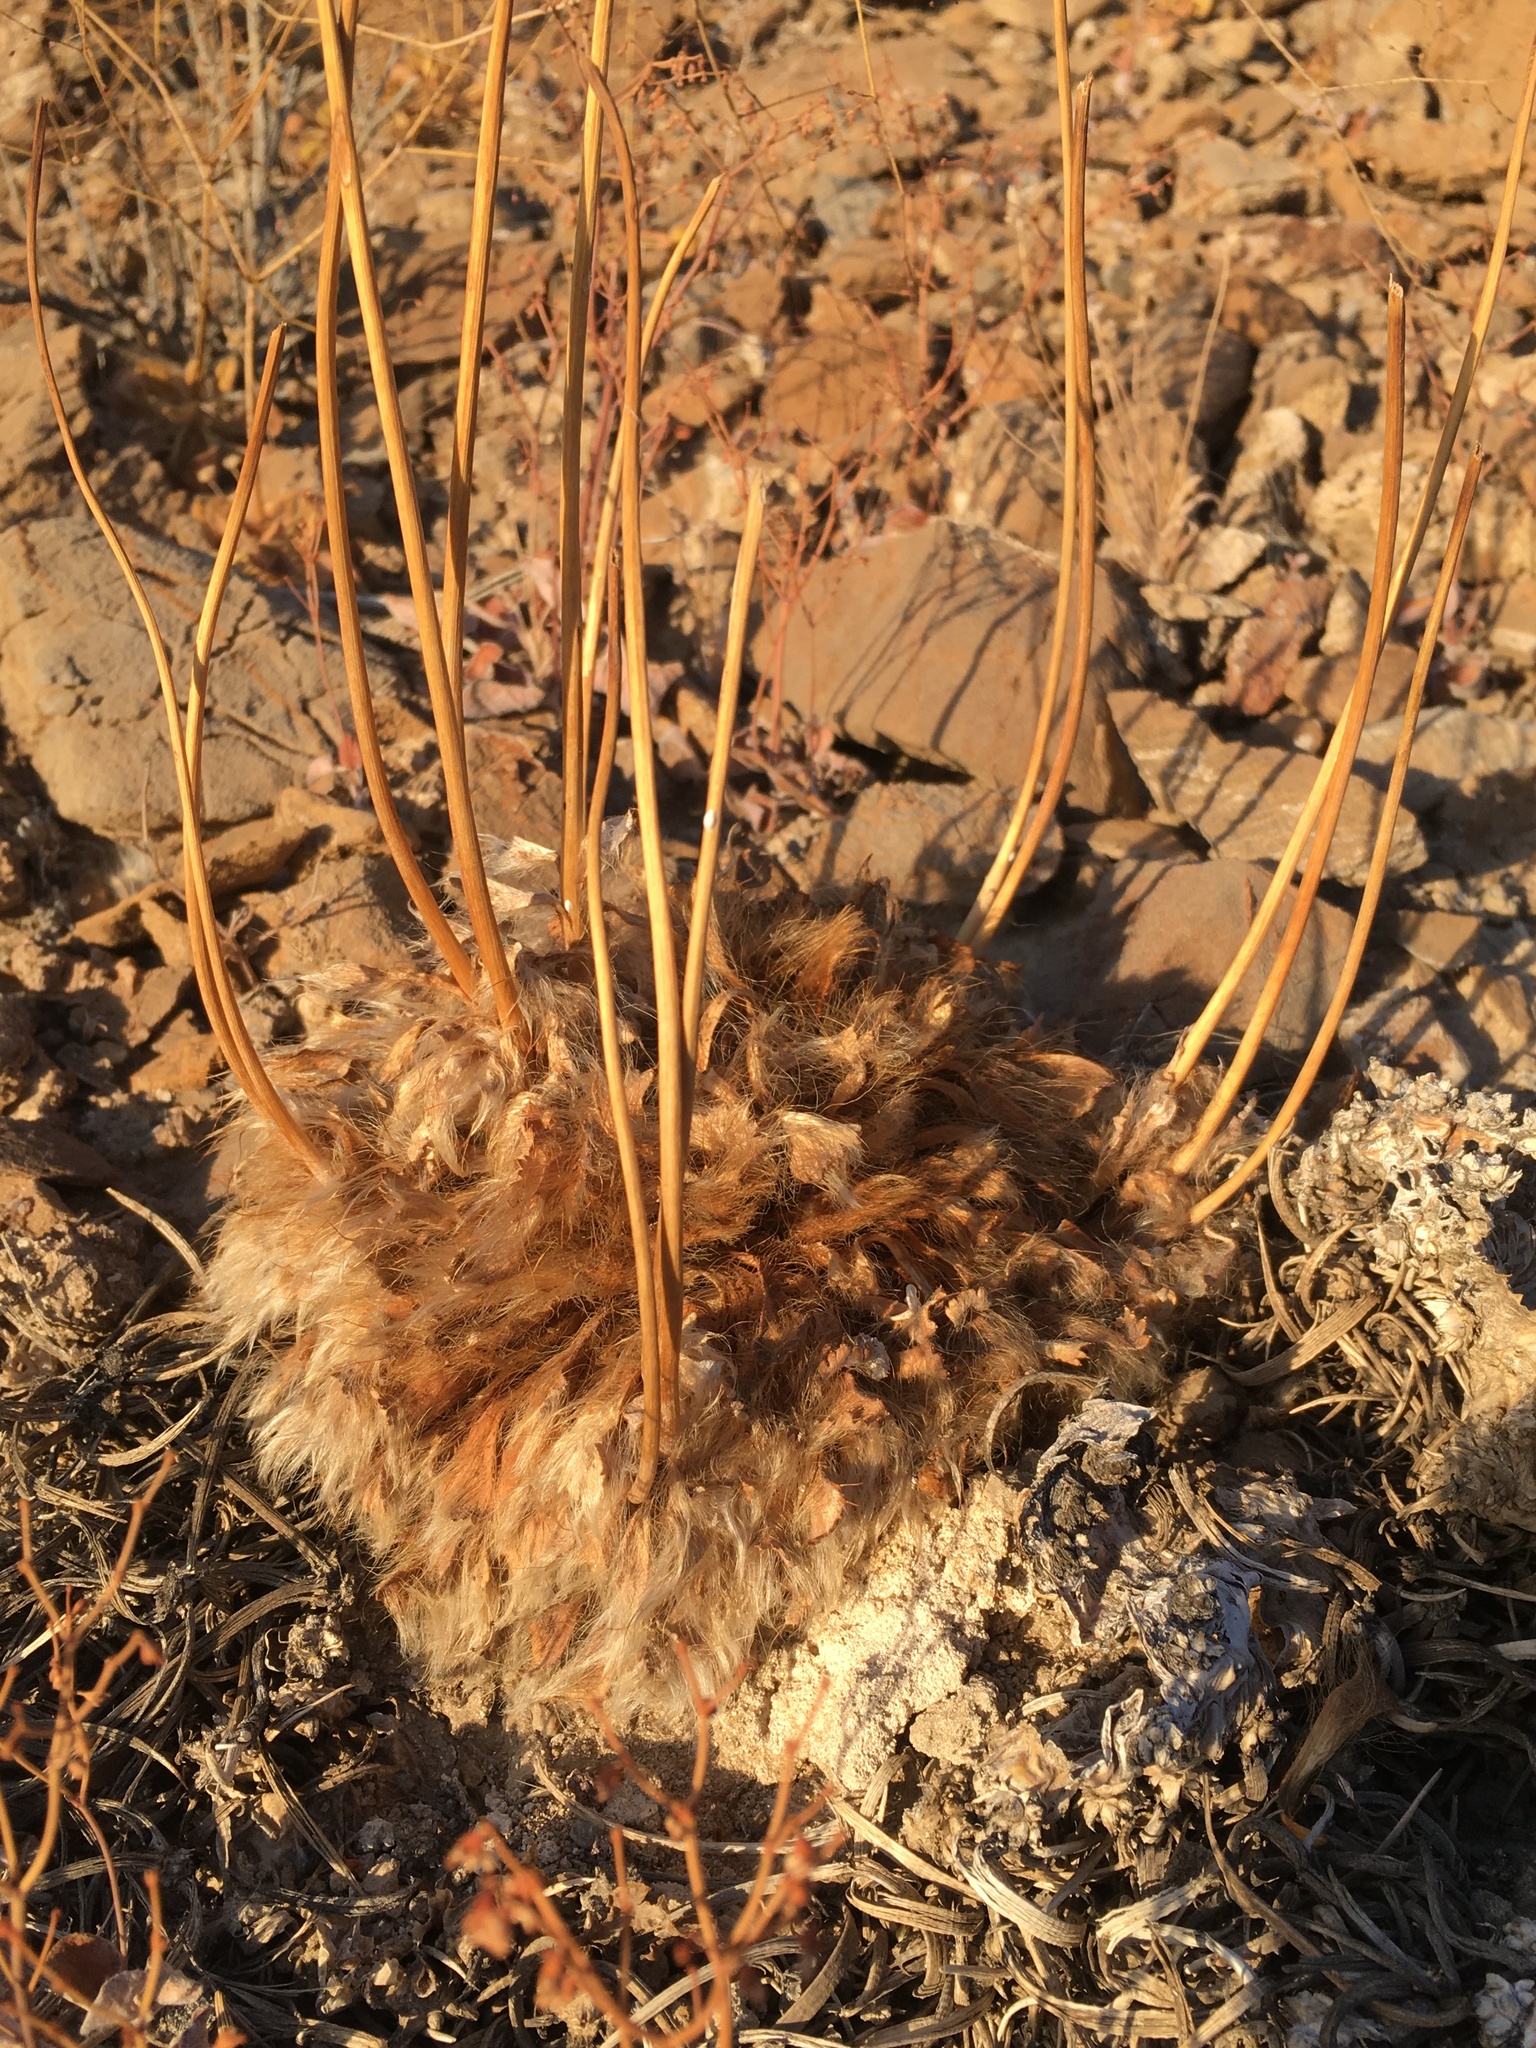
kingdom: Plantae
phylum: Tracheophyta
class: Magnoliopsida
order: Ranunculales
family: Papaveraceae
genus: Arctomecon
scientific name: Arctomecon merriamii
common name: White bear-poppy
